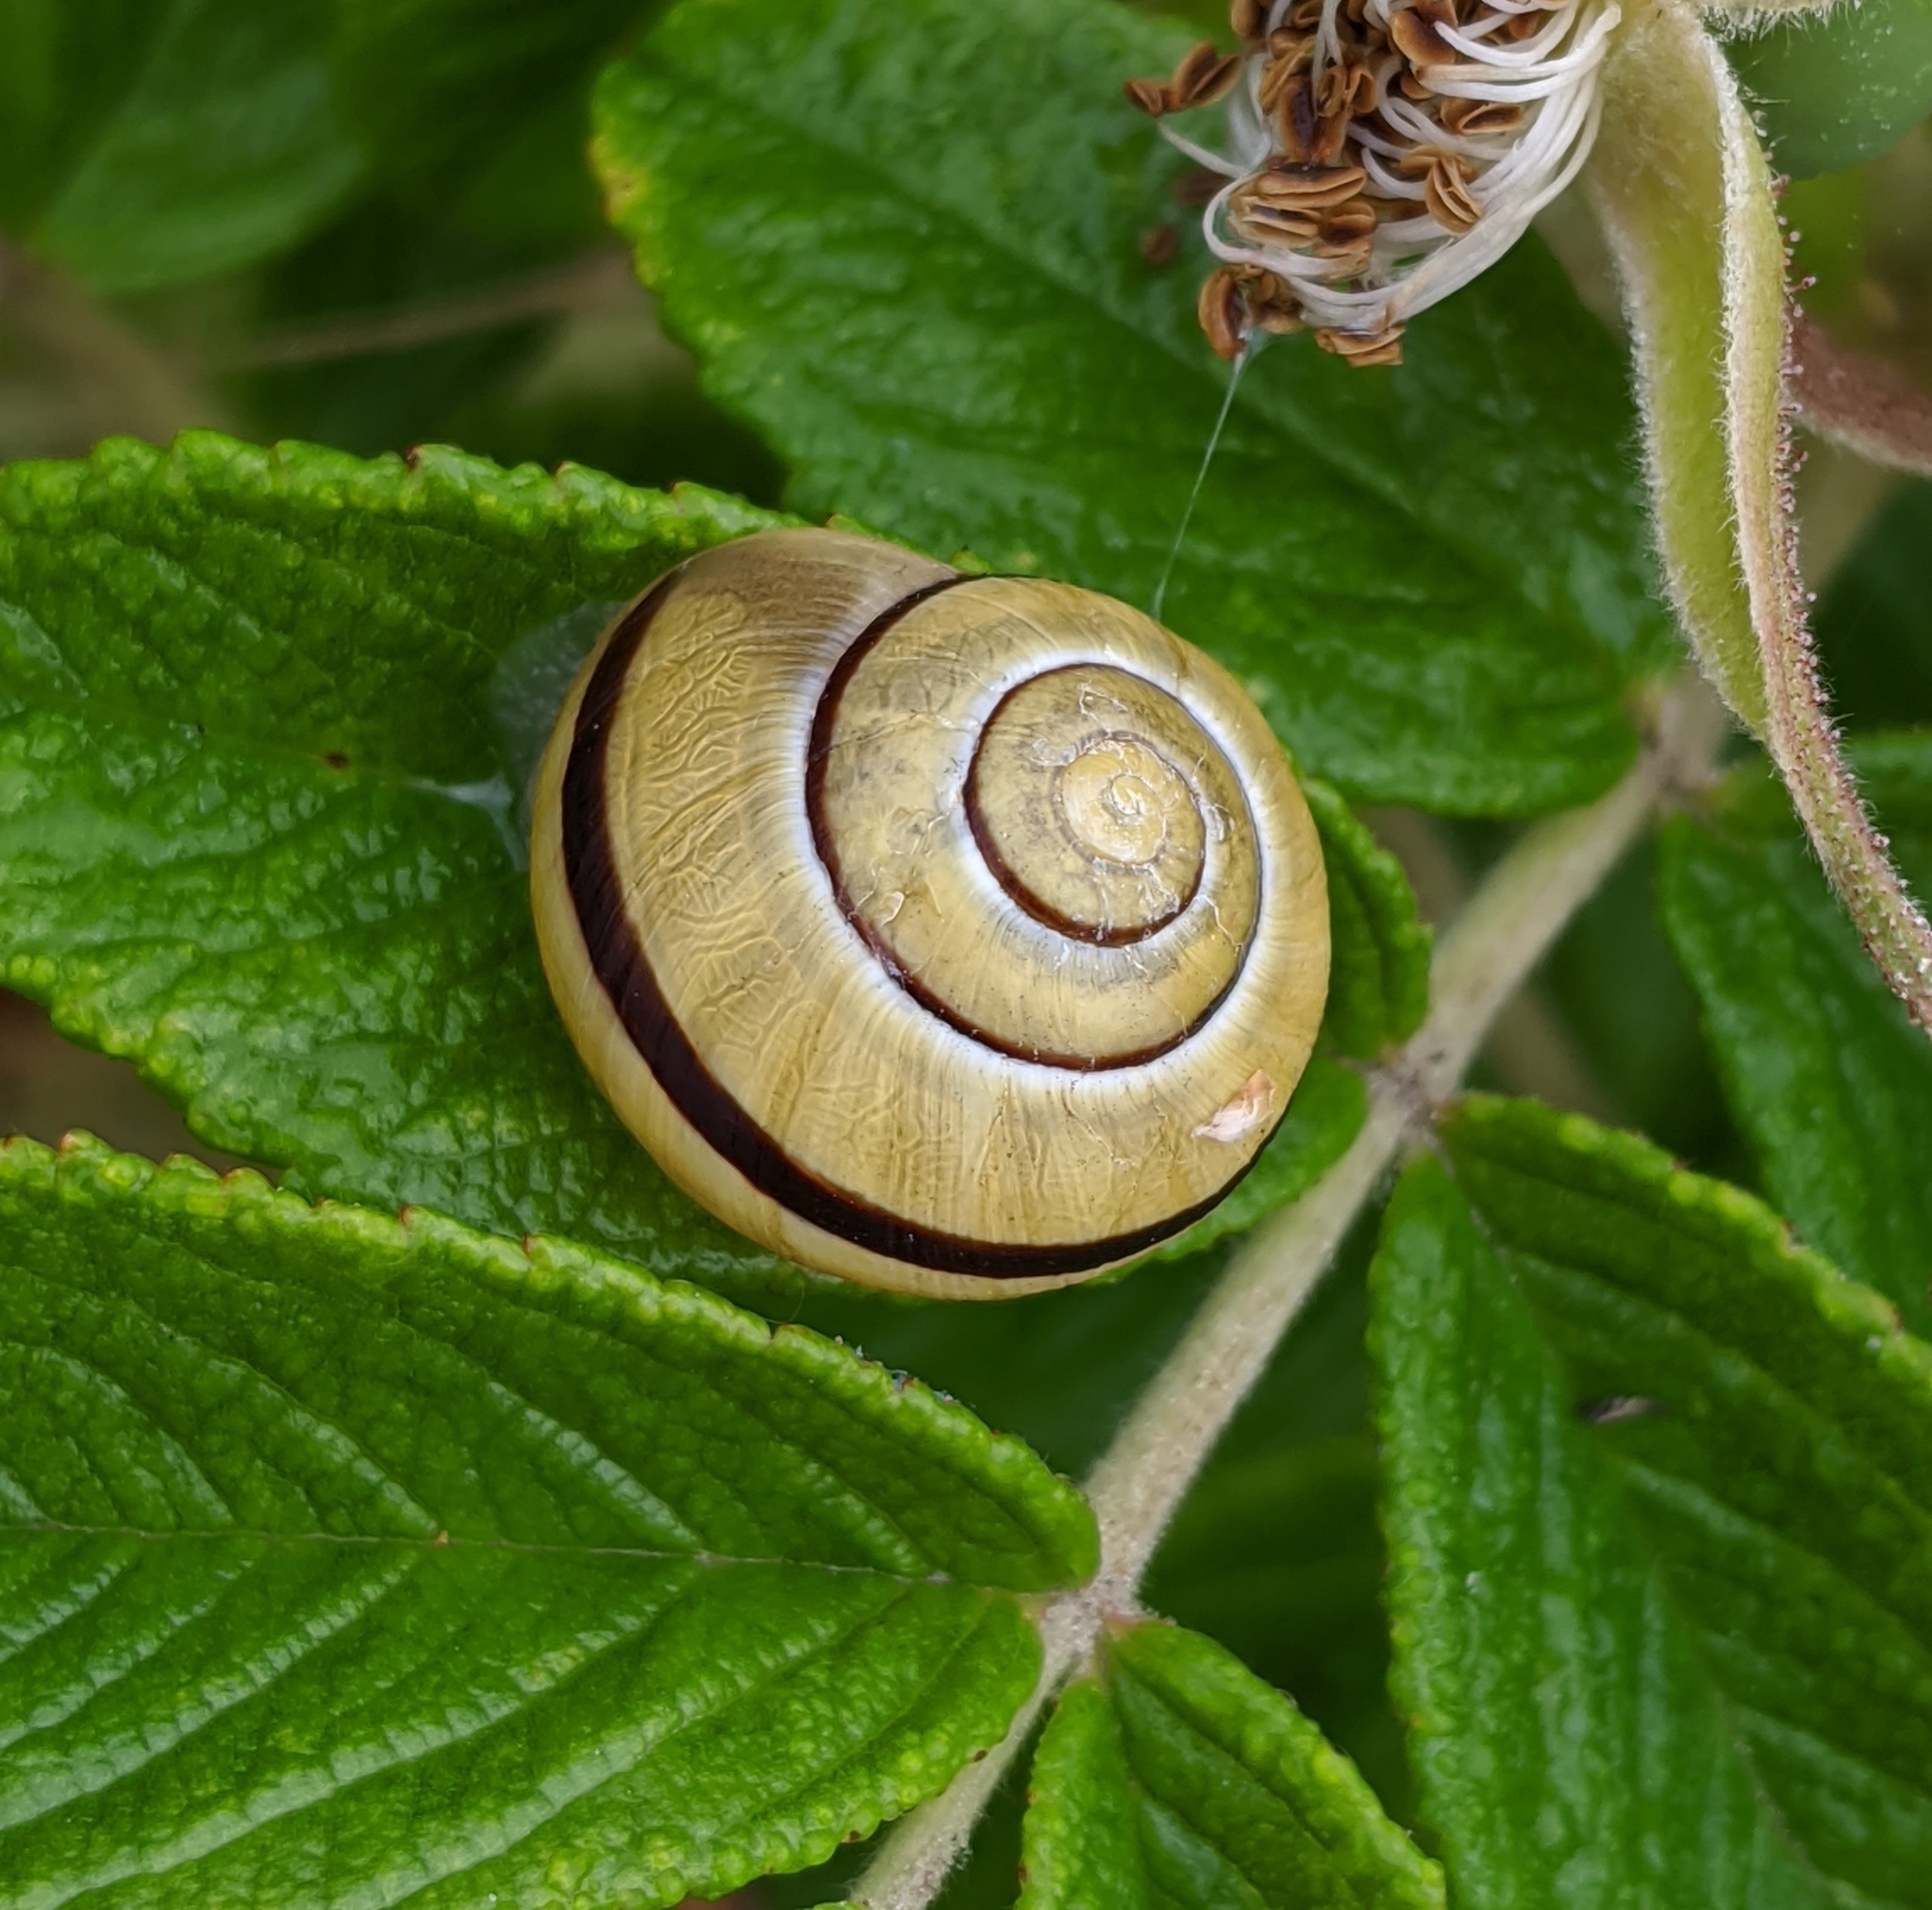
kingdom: Animalia
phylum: Mollusca
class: Gastropoda
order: Stylommatophora
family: Helicidae
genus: Cepaea
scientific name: Cepaea nemoralis
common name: Grovesnail
